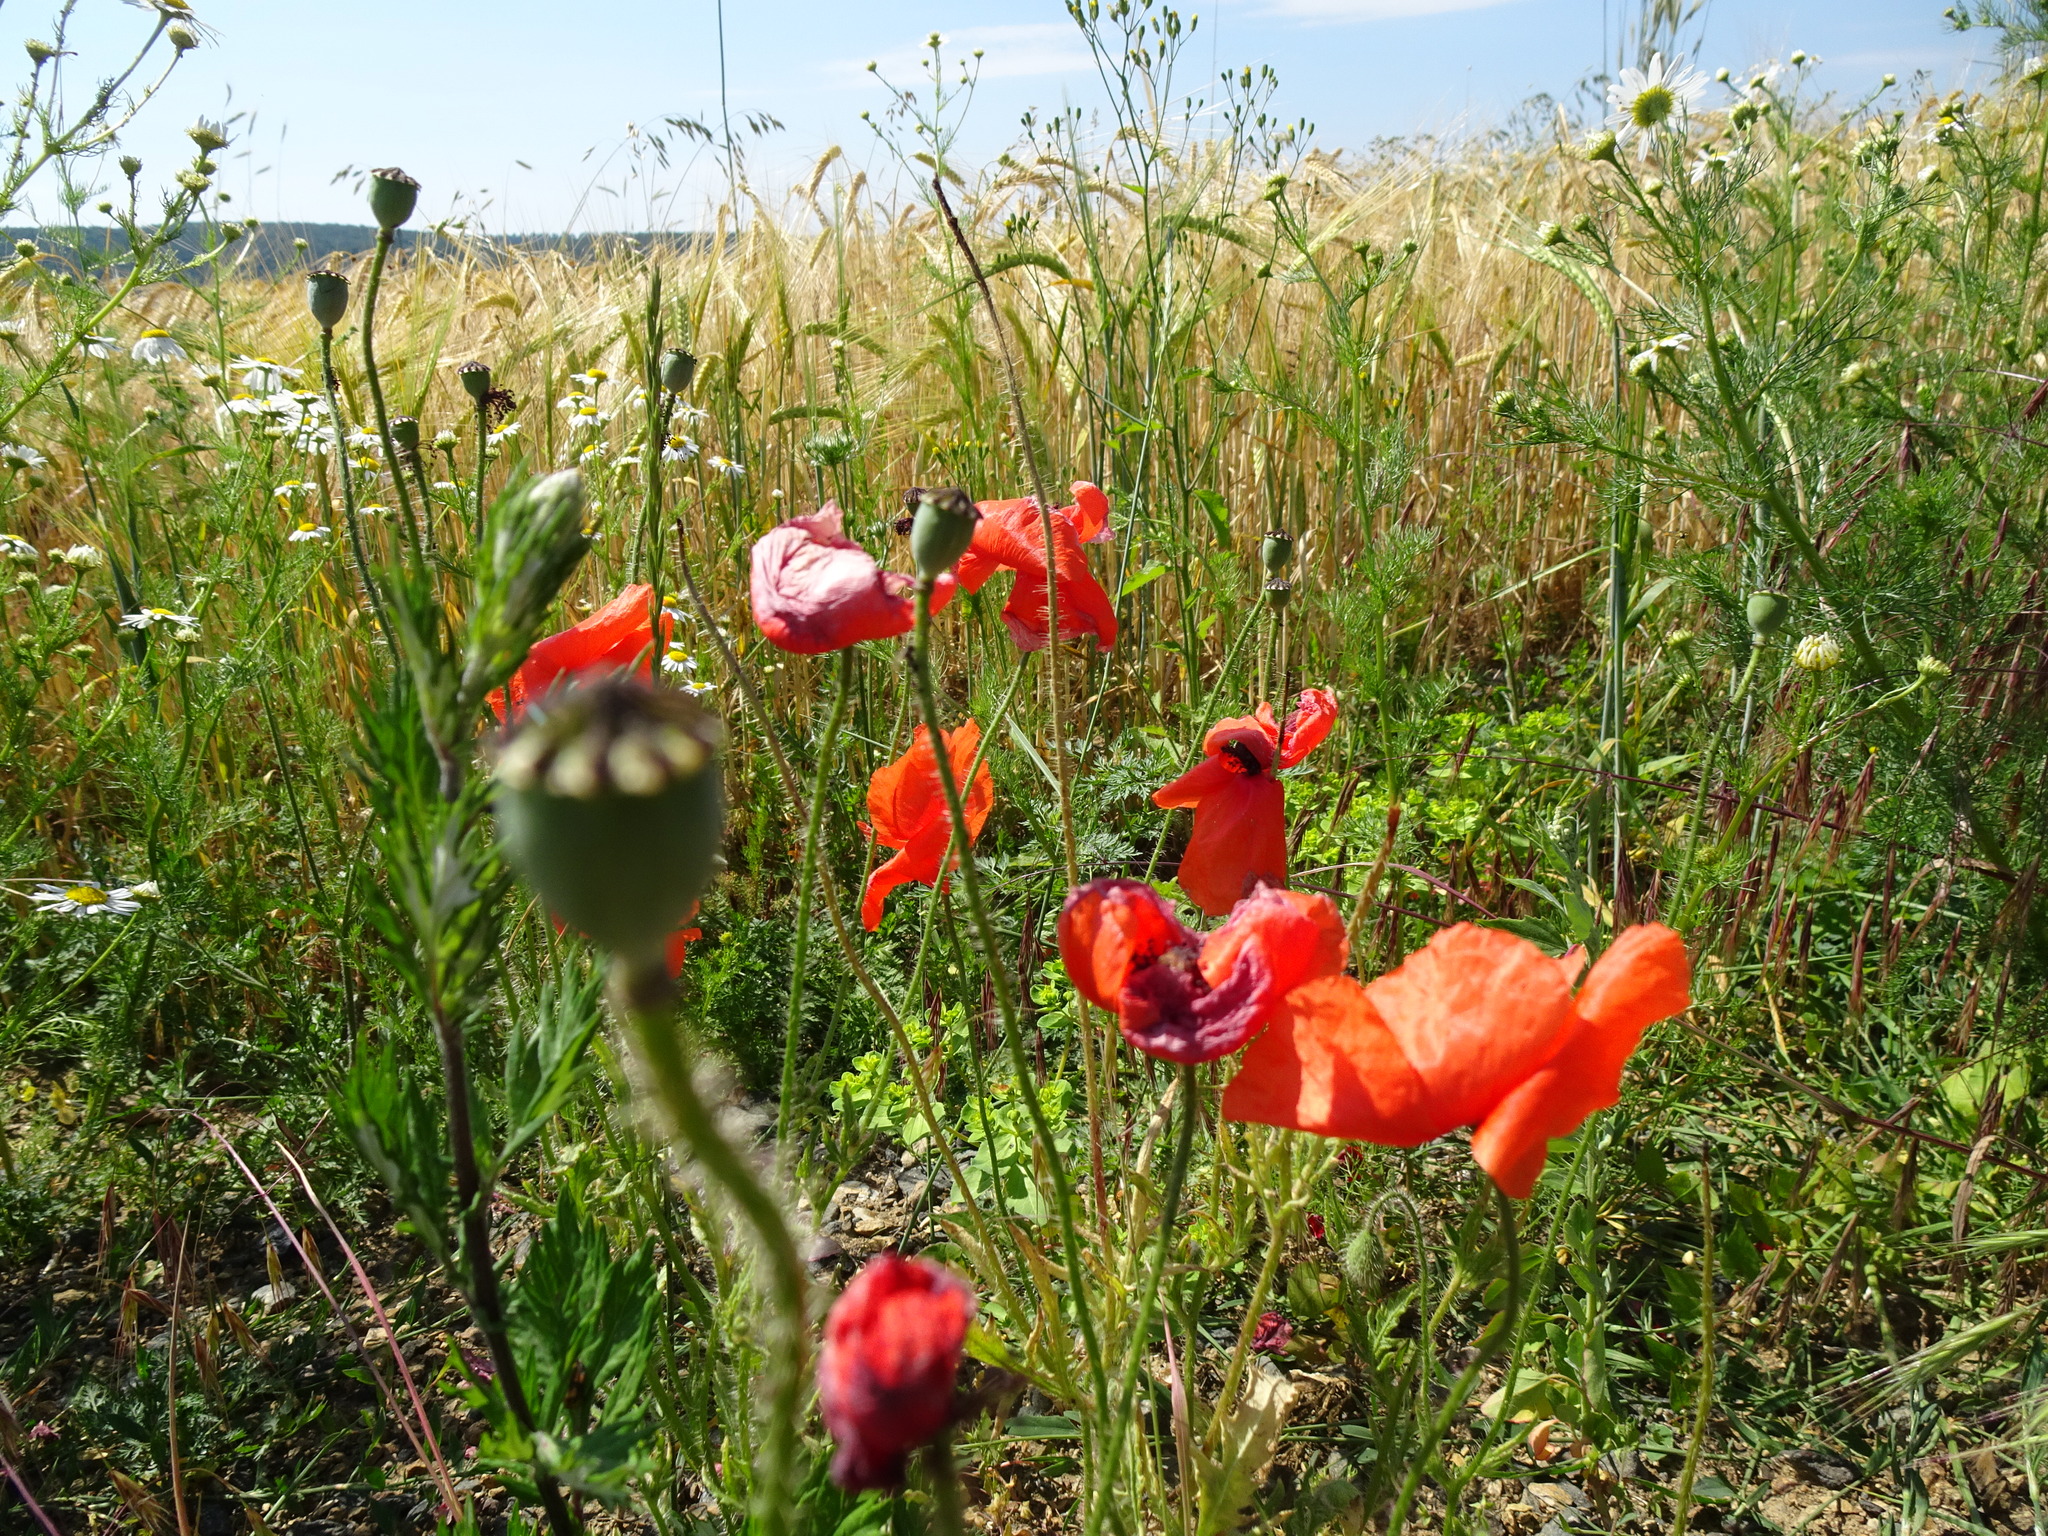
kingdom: Plantae
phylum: Tracheophyta
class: Magnoliopsida
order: Ranunculales
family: Papaveraceae
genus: Papaver
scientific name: Papaver rhoeas
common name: Corn poppy
